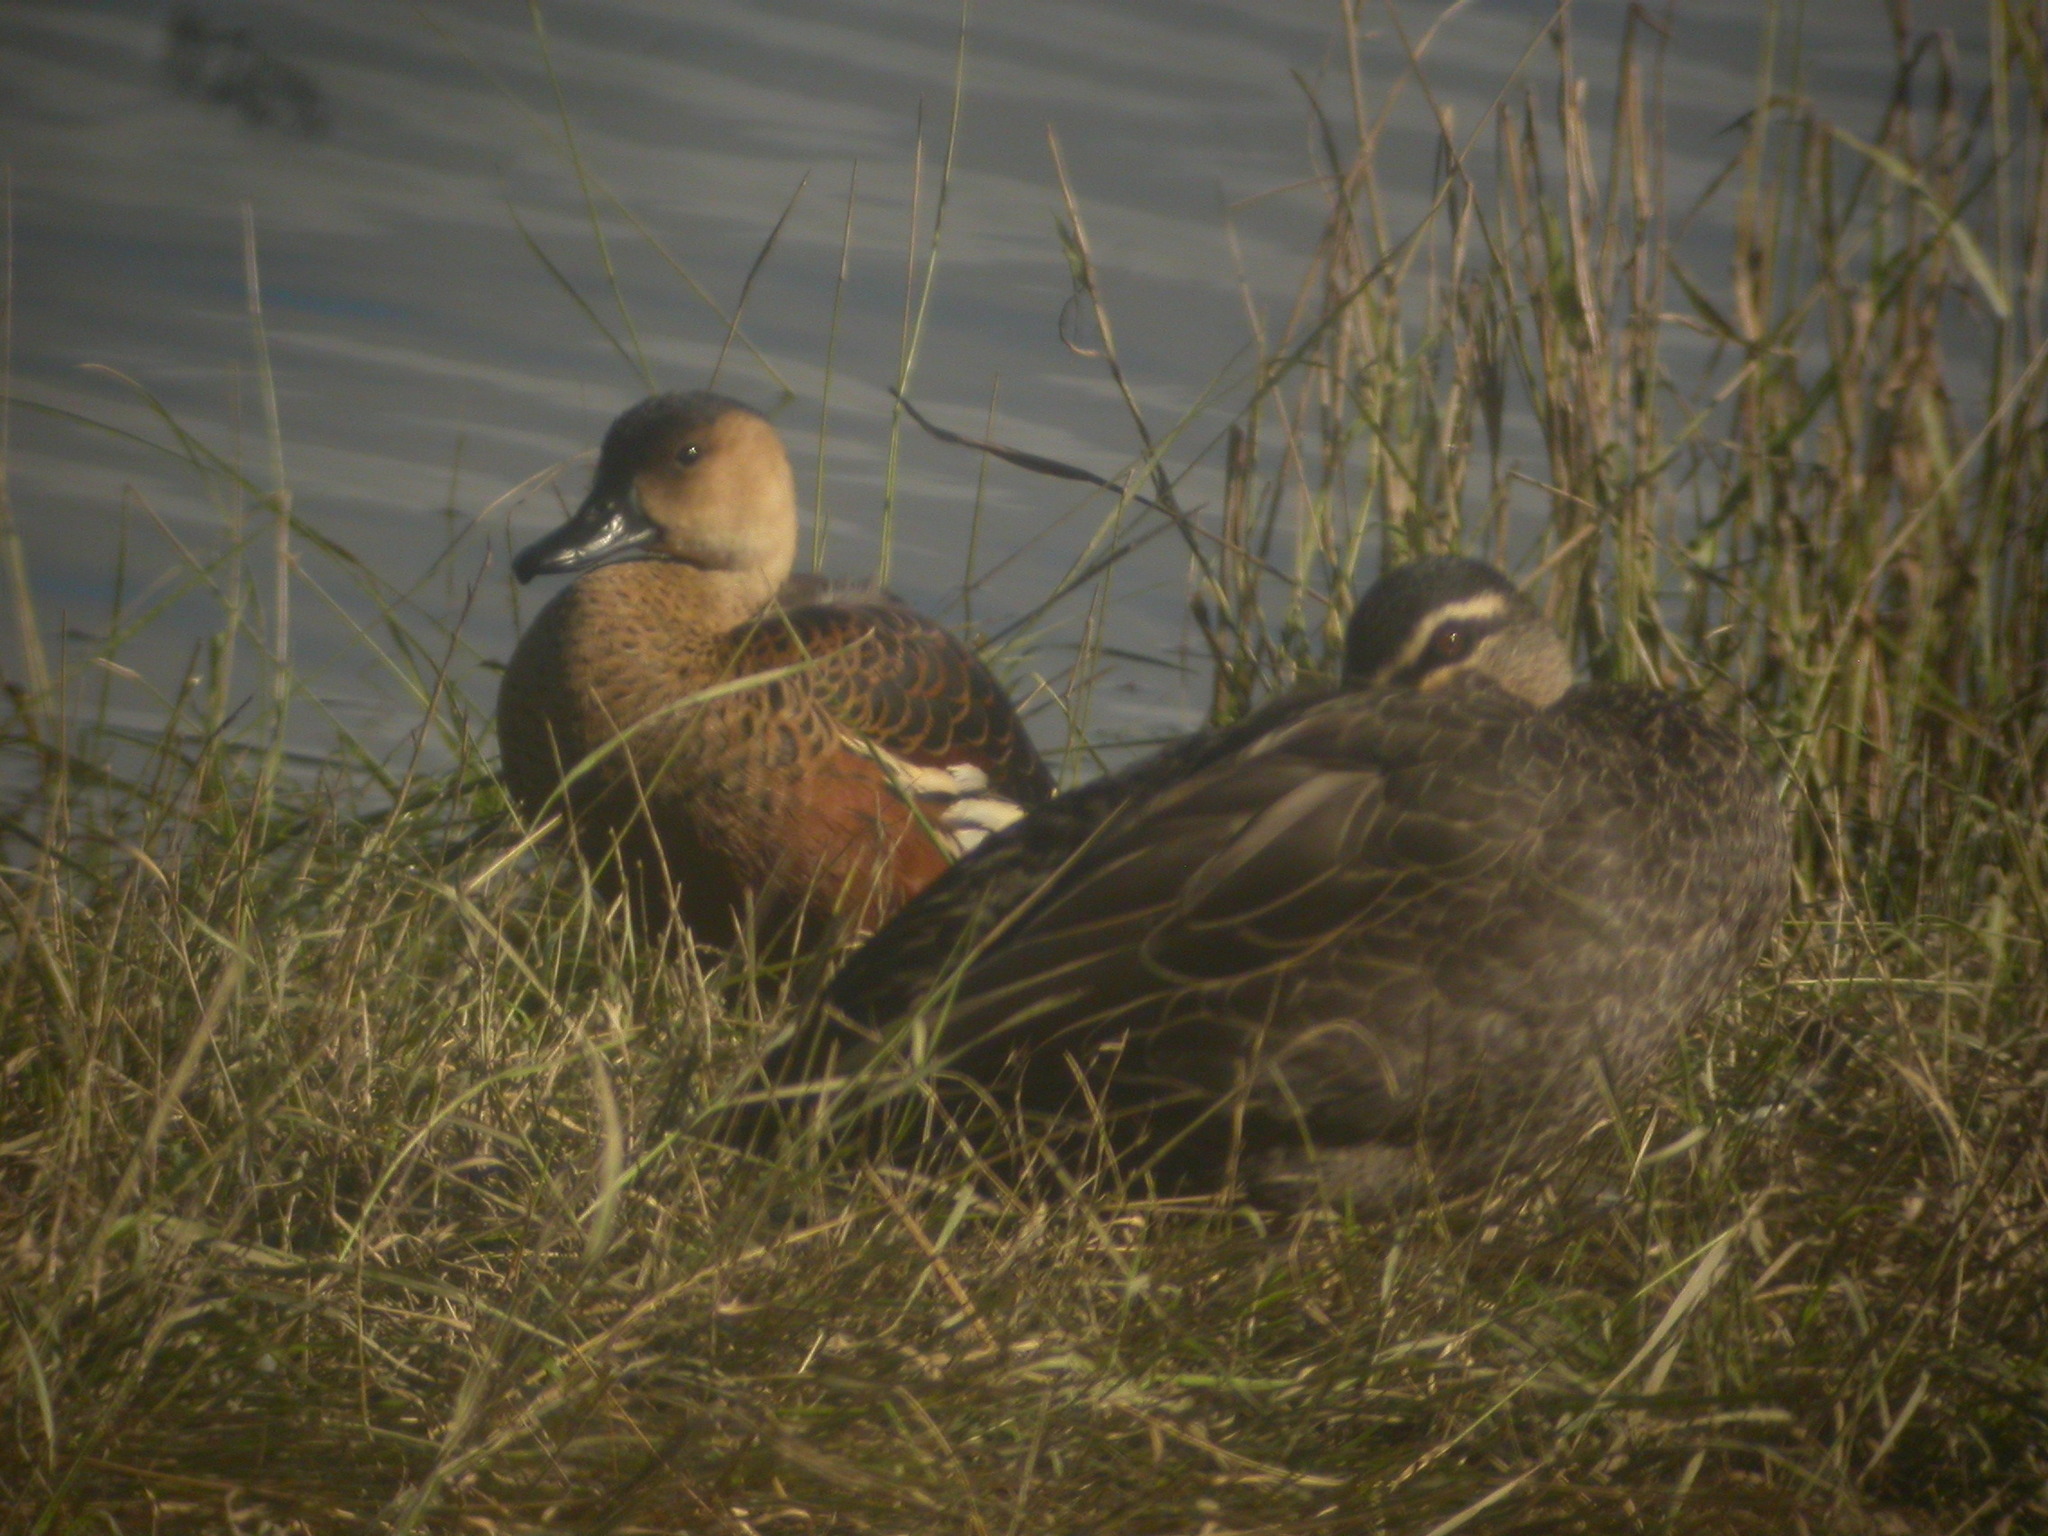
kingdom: Animalia
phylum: Chordata
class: Aves
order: Anseriformes
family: Anatidae
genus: Dendrocygna
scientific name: Dendrocygna arcuata
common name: Wandering whistling-duck
